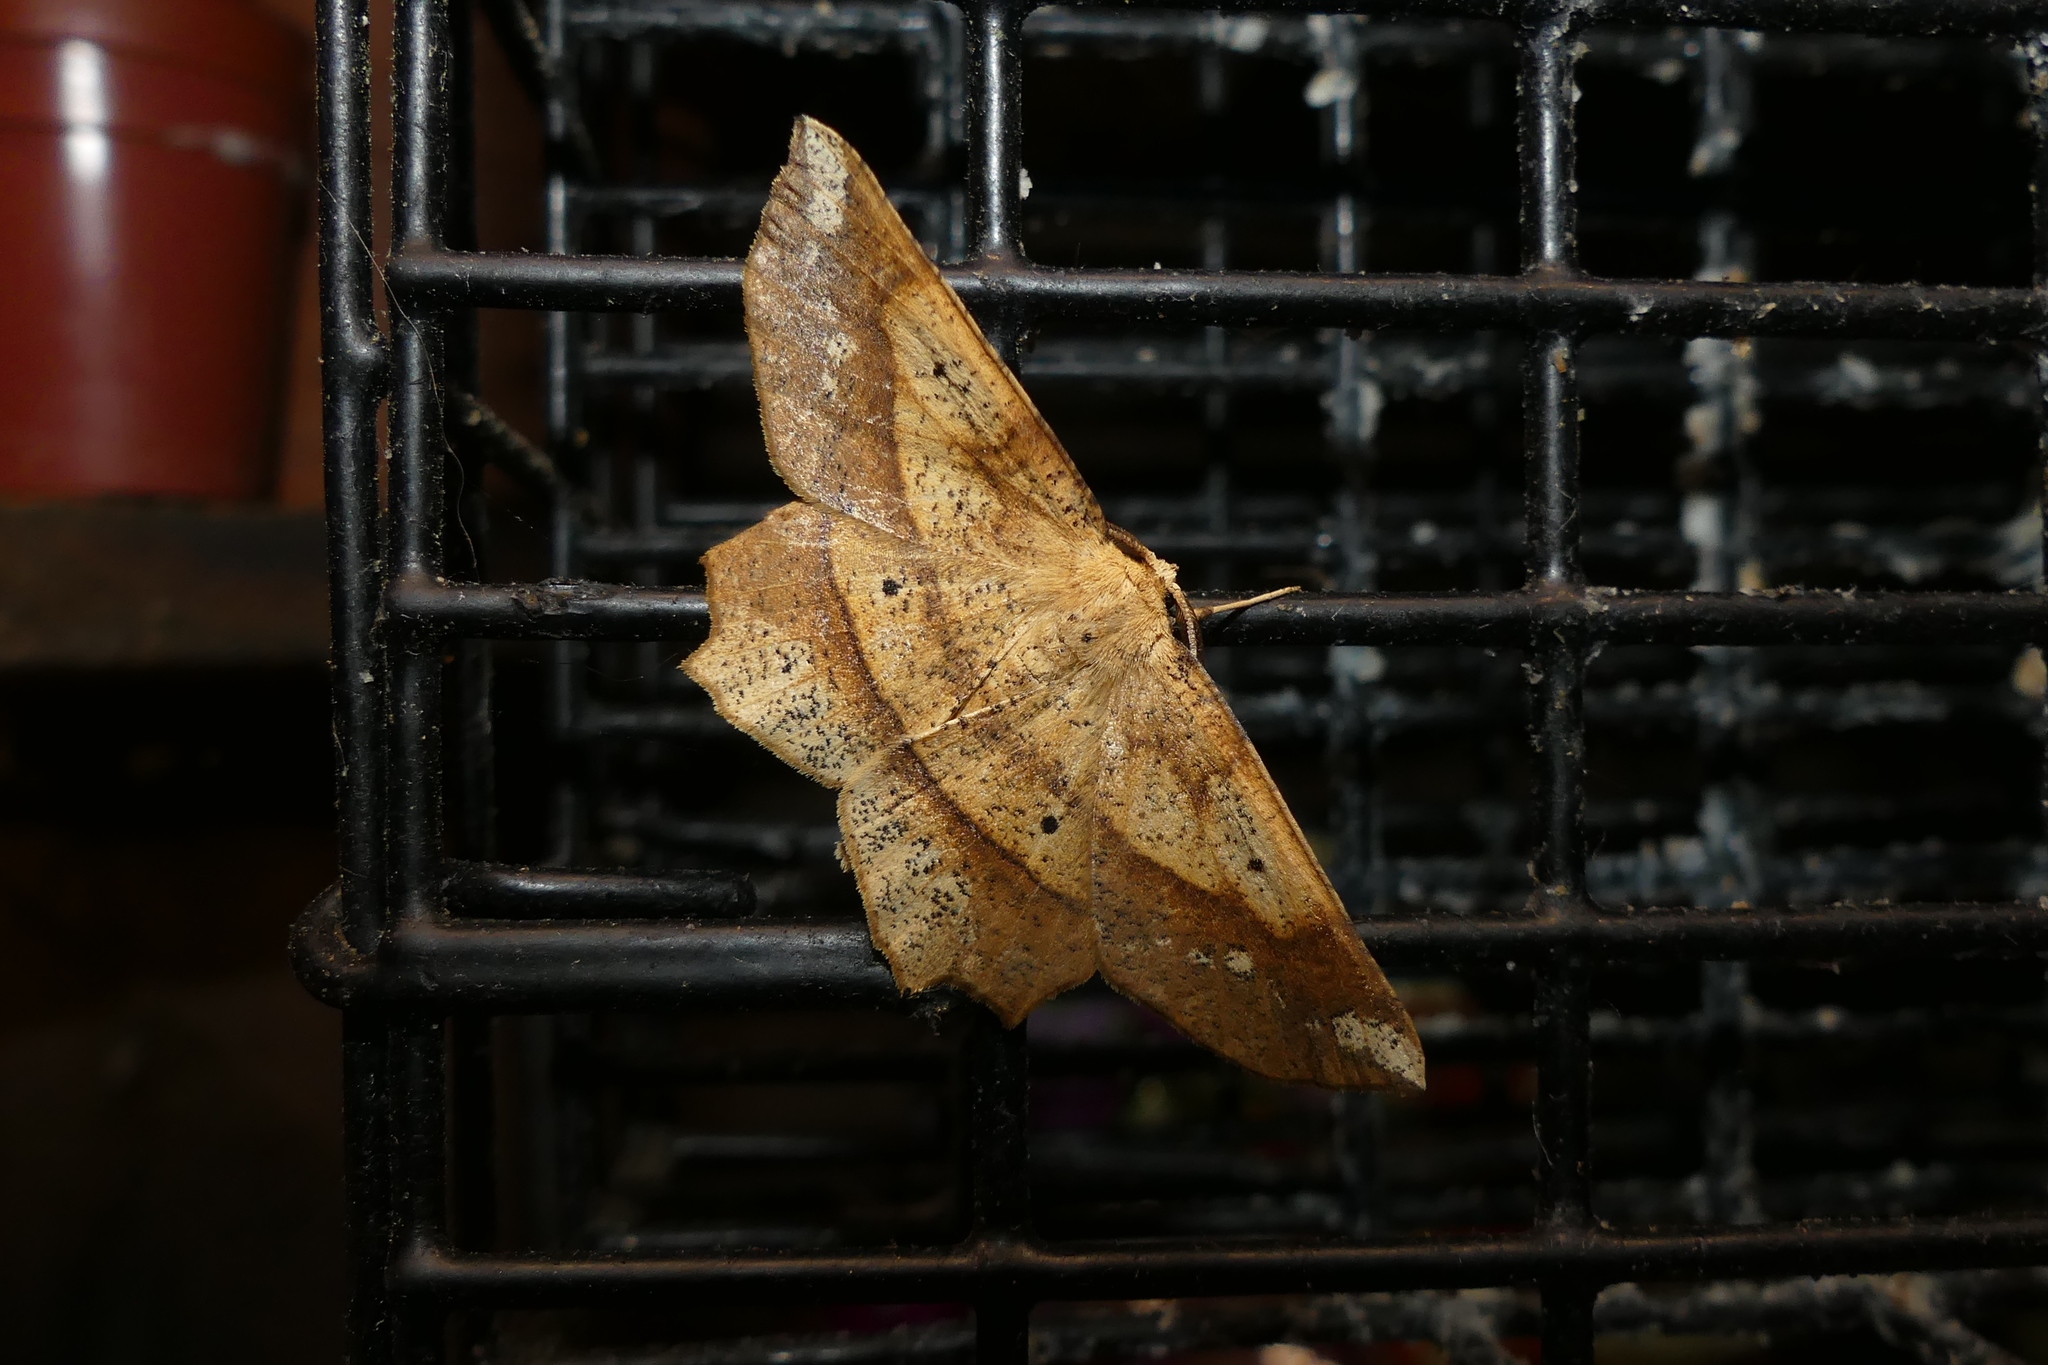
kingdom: Animalia
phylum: Arthropoda
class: Insecta
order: Lepidoptera
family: Geometridae
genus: Euchlaena
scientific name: Euchlaena amoenaria
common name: Deep yellow euchlaena
